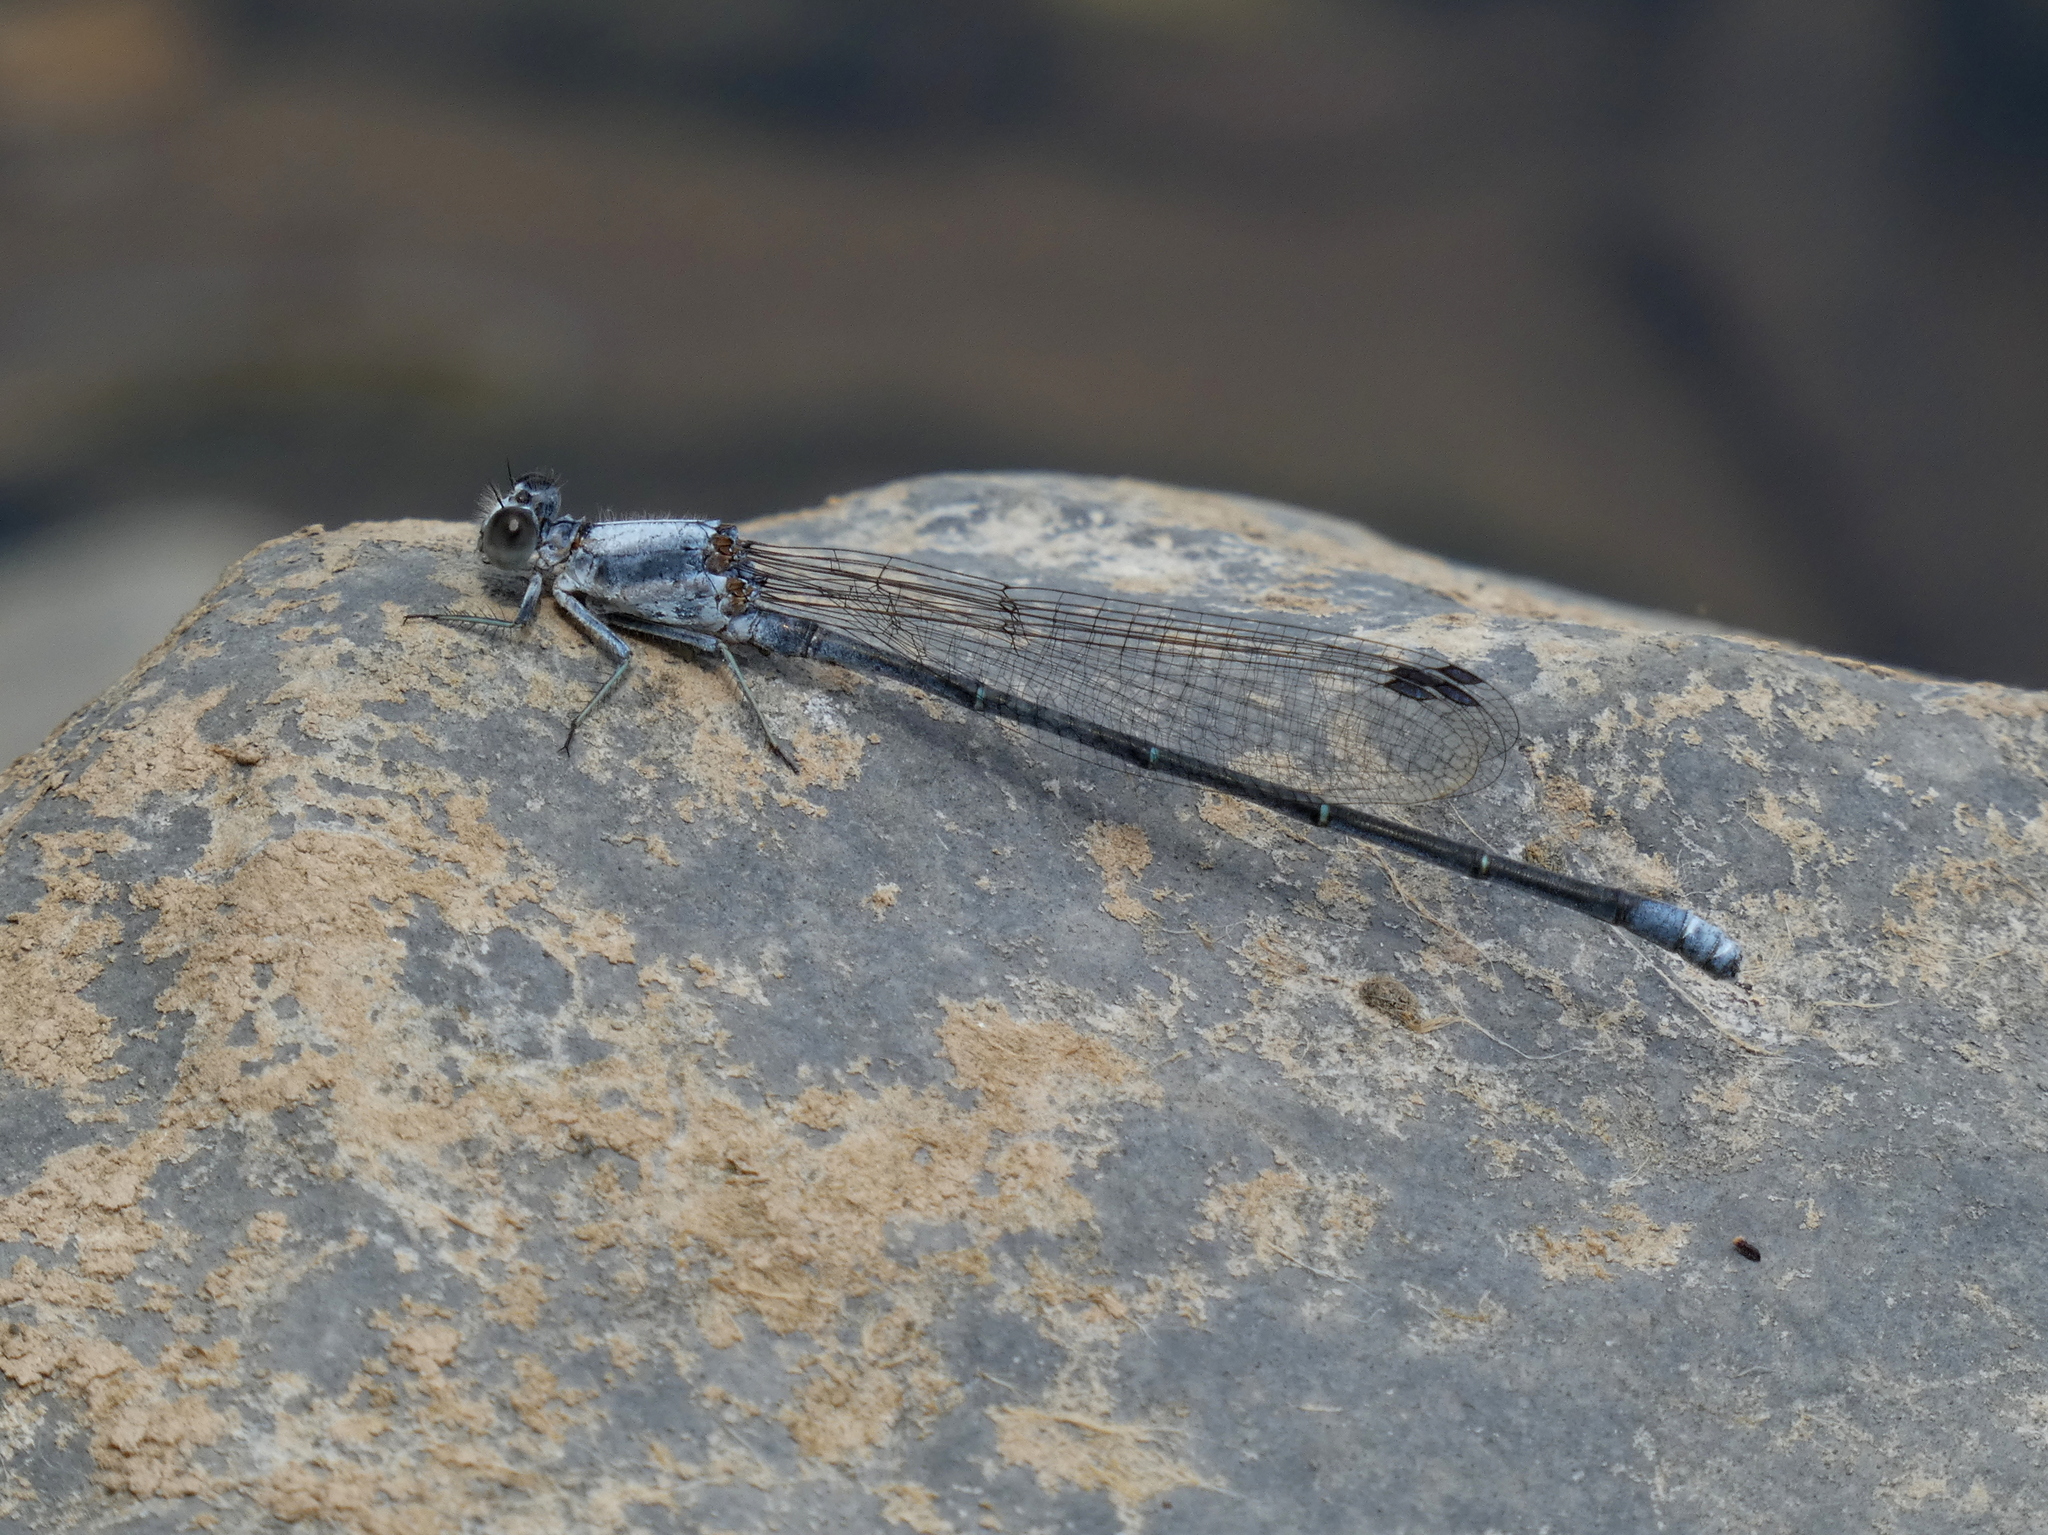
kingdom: Animalia
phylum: Arthropoda
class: Insecta
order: Odonata
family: Coenagrionidae
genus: Argia
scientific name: Argia moesta
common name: Powdered dancer
